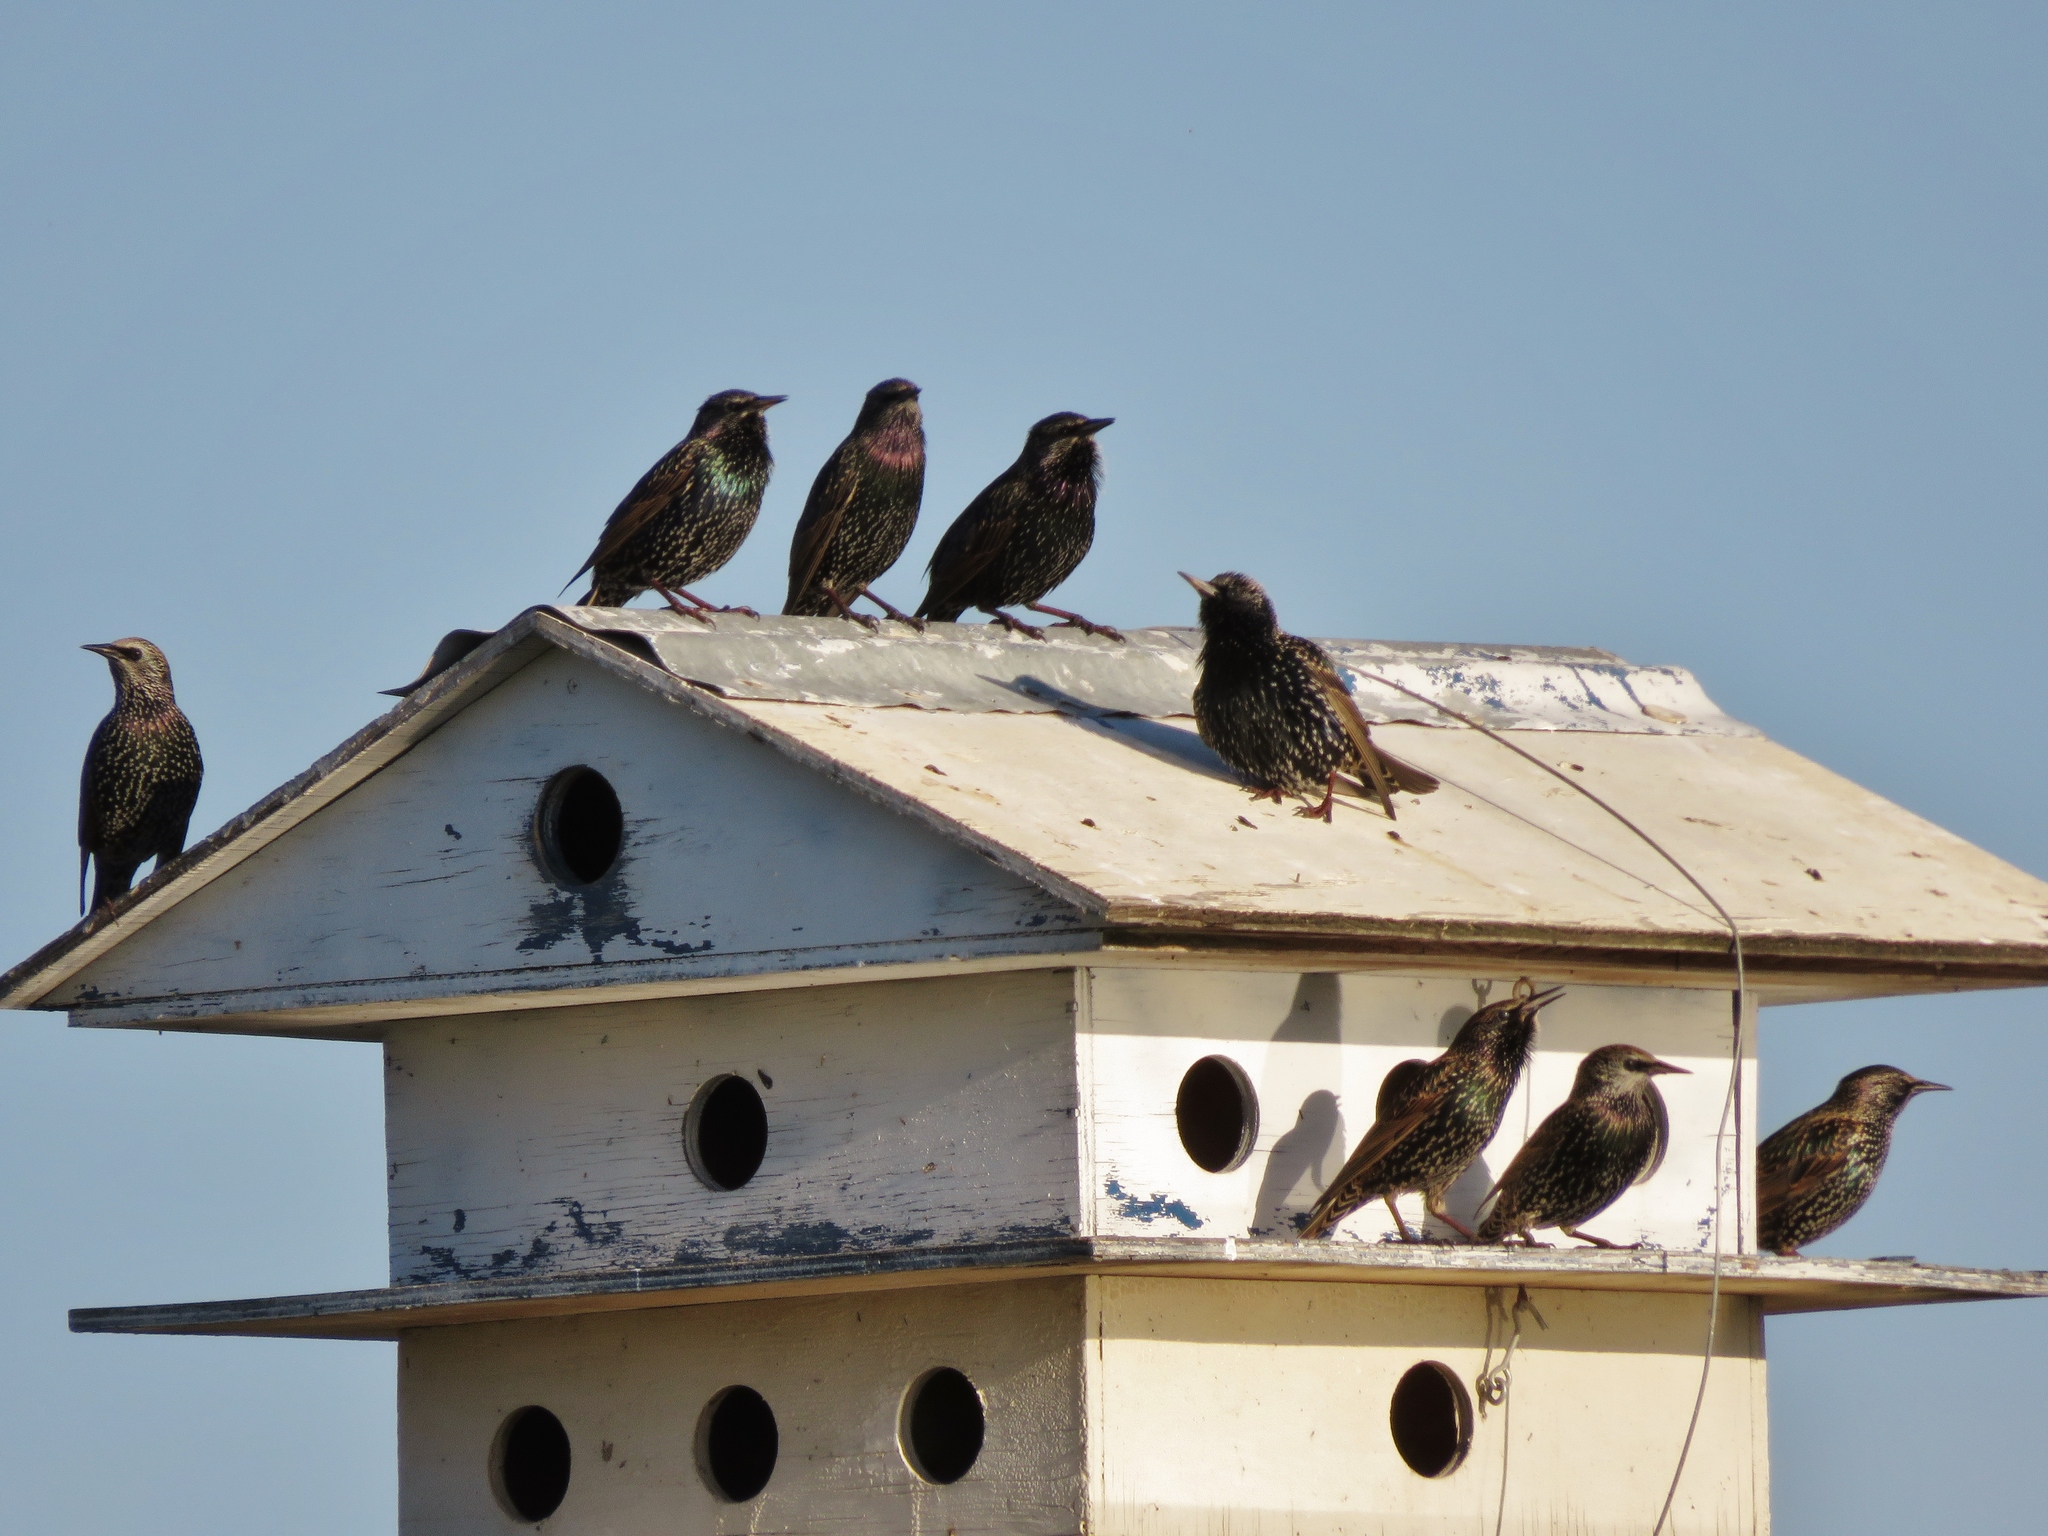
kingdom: Animalia
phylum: Chordata
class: Aves
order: Passeriformes
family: Sturnidae
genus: Sturnus
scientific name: Sturnus vulgaris
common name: Common starling
